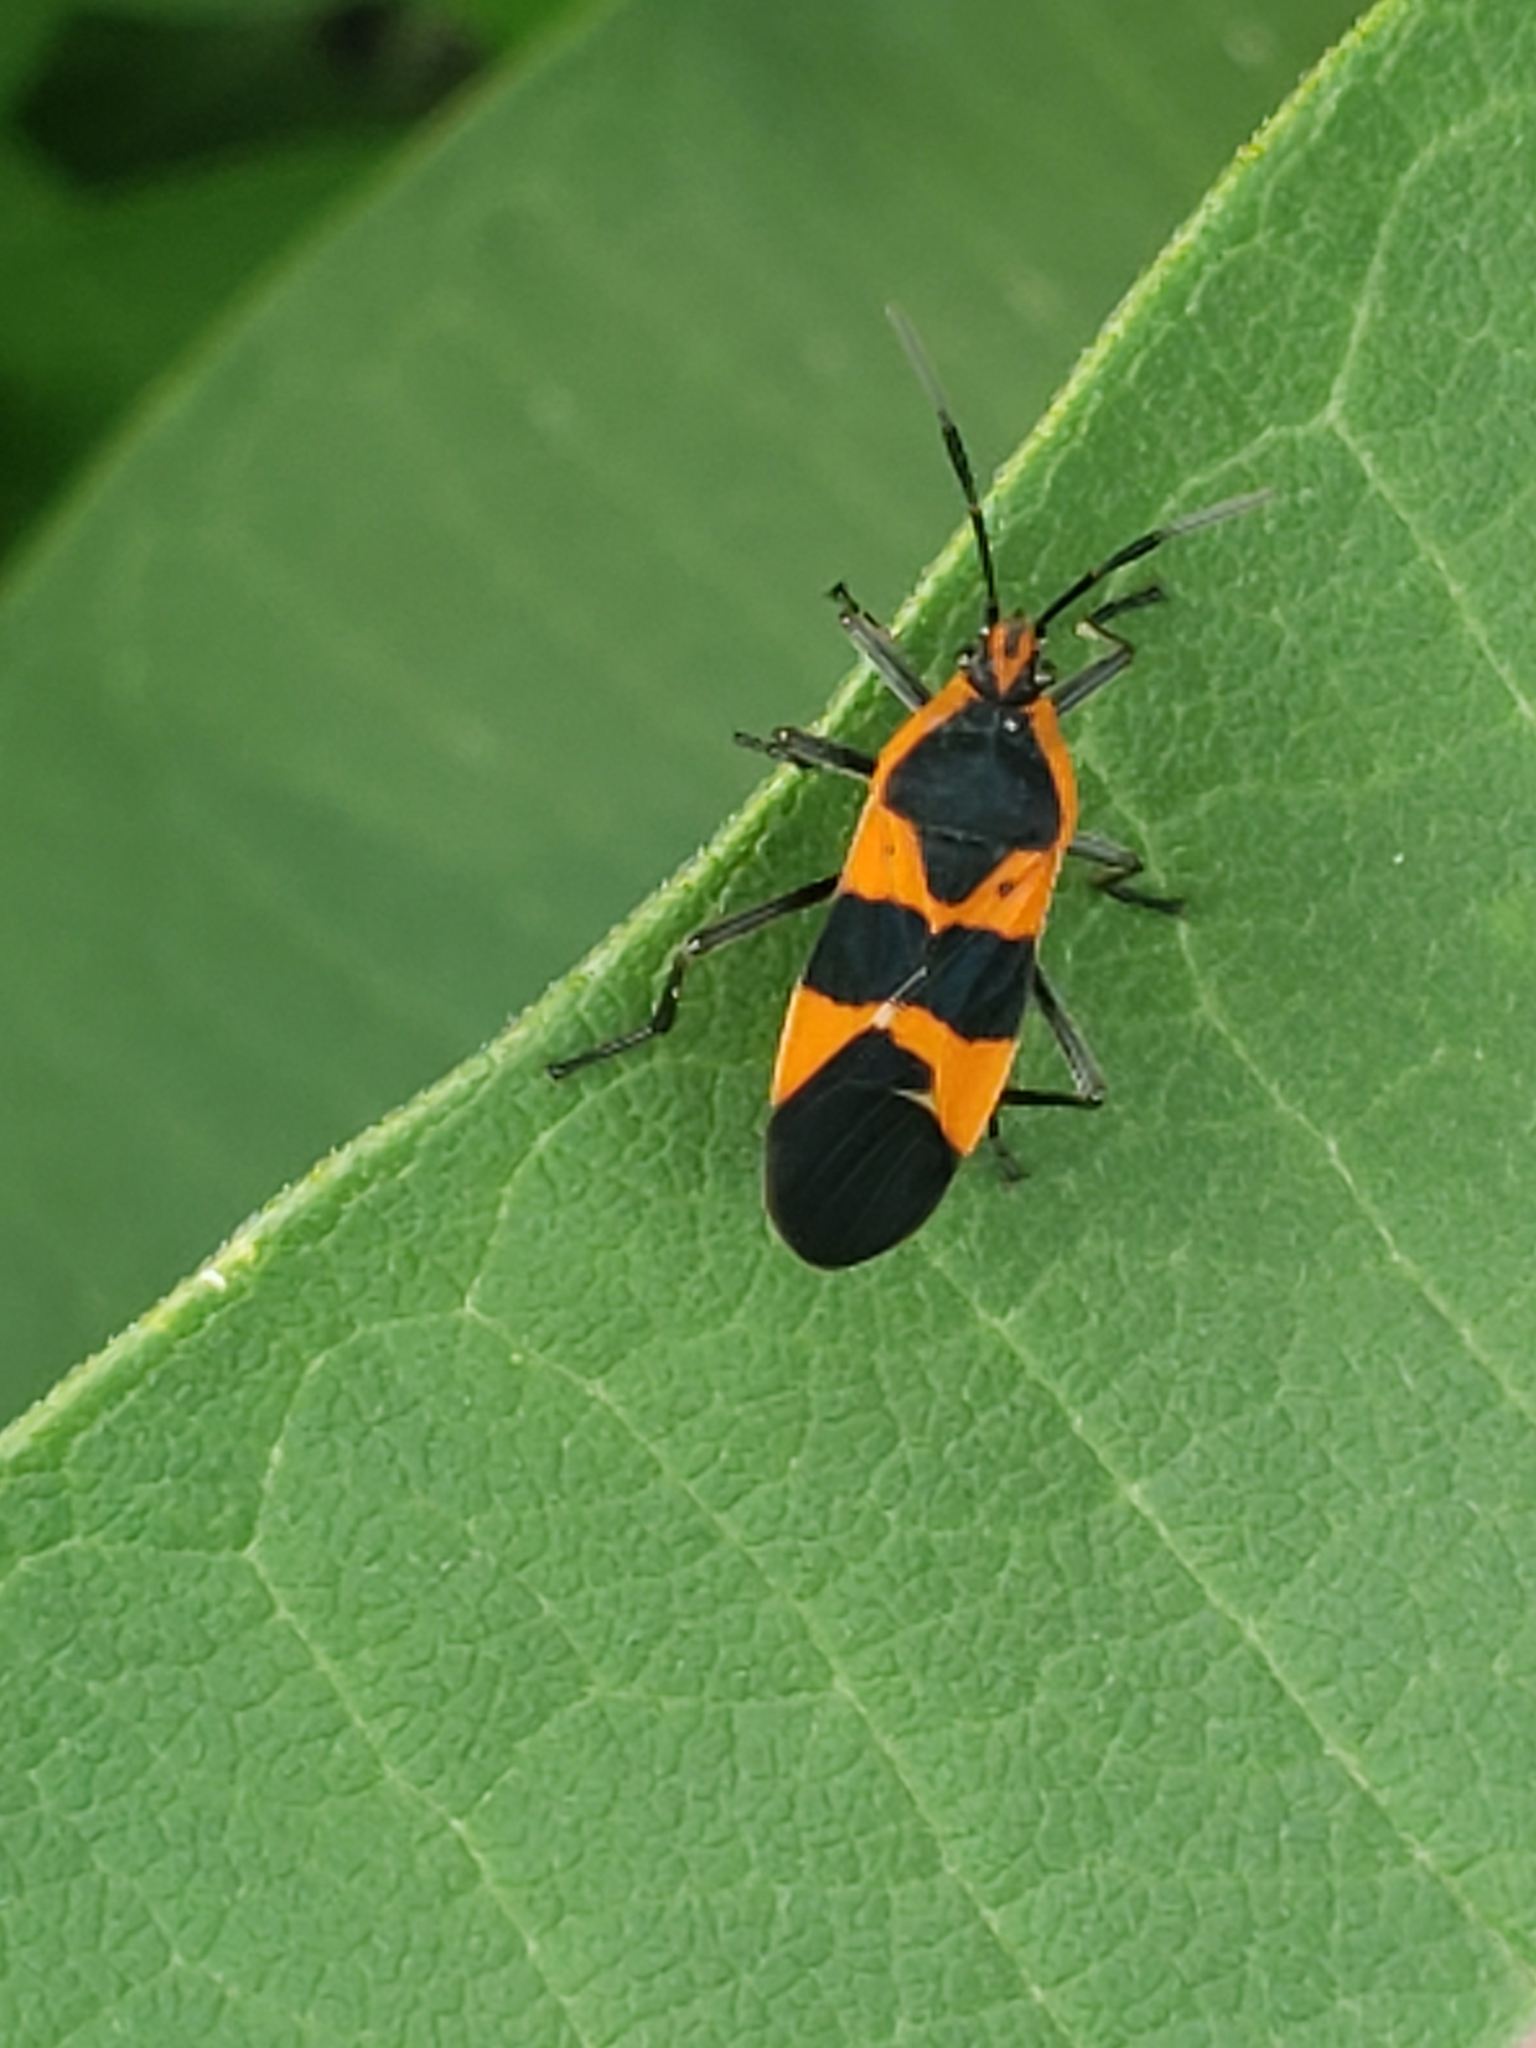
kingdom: Animalia
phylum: Arthropoda
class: Insecta
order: Hemiptera
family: Lygaeidae
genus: Oncopeltus
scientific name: Oncopeltus fasciatus
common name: Large milkweed bug
